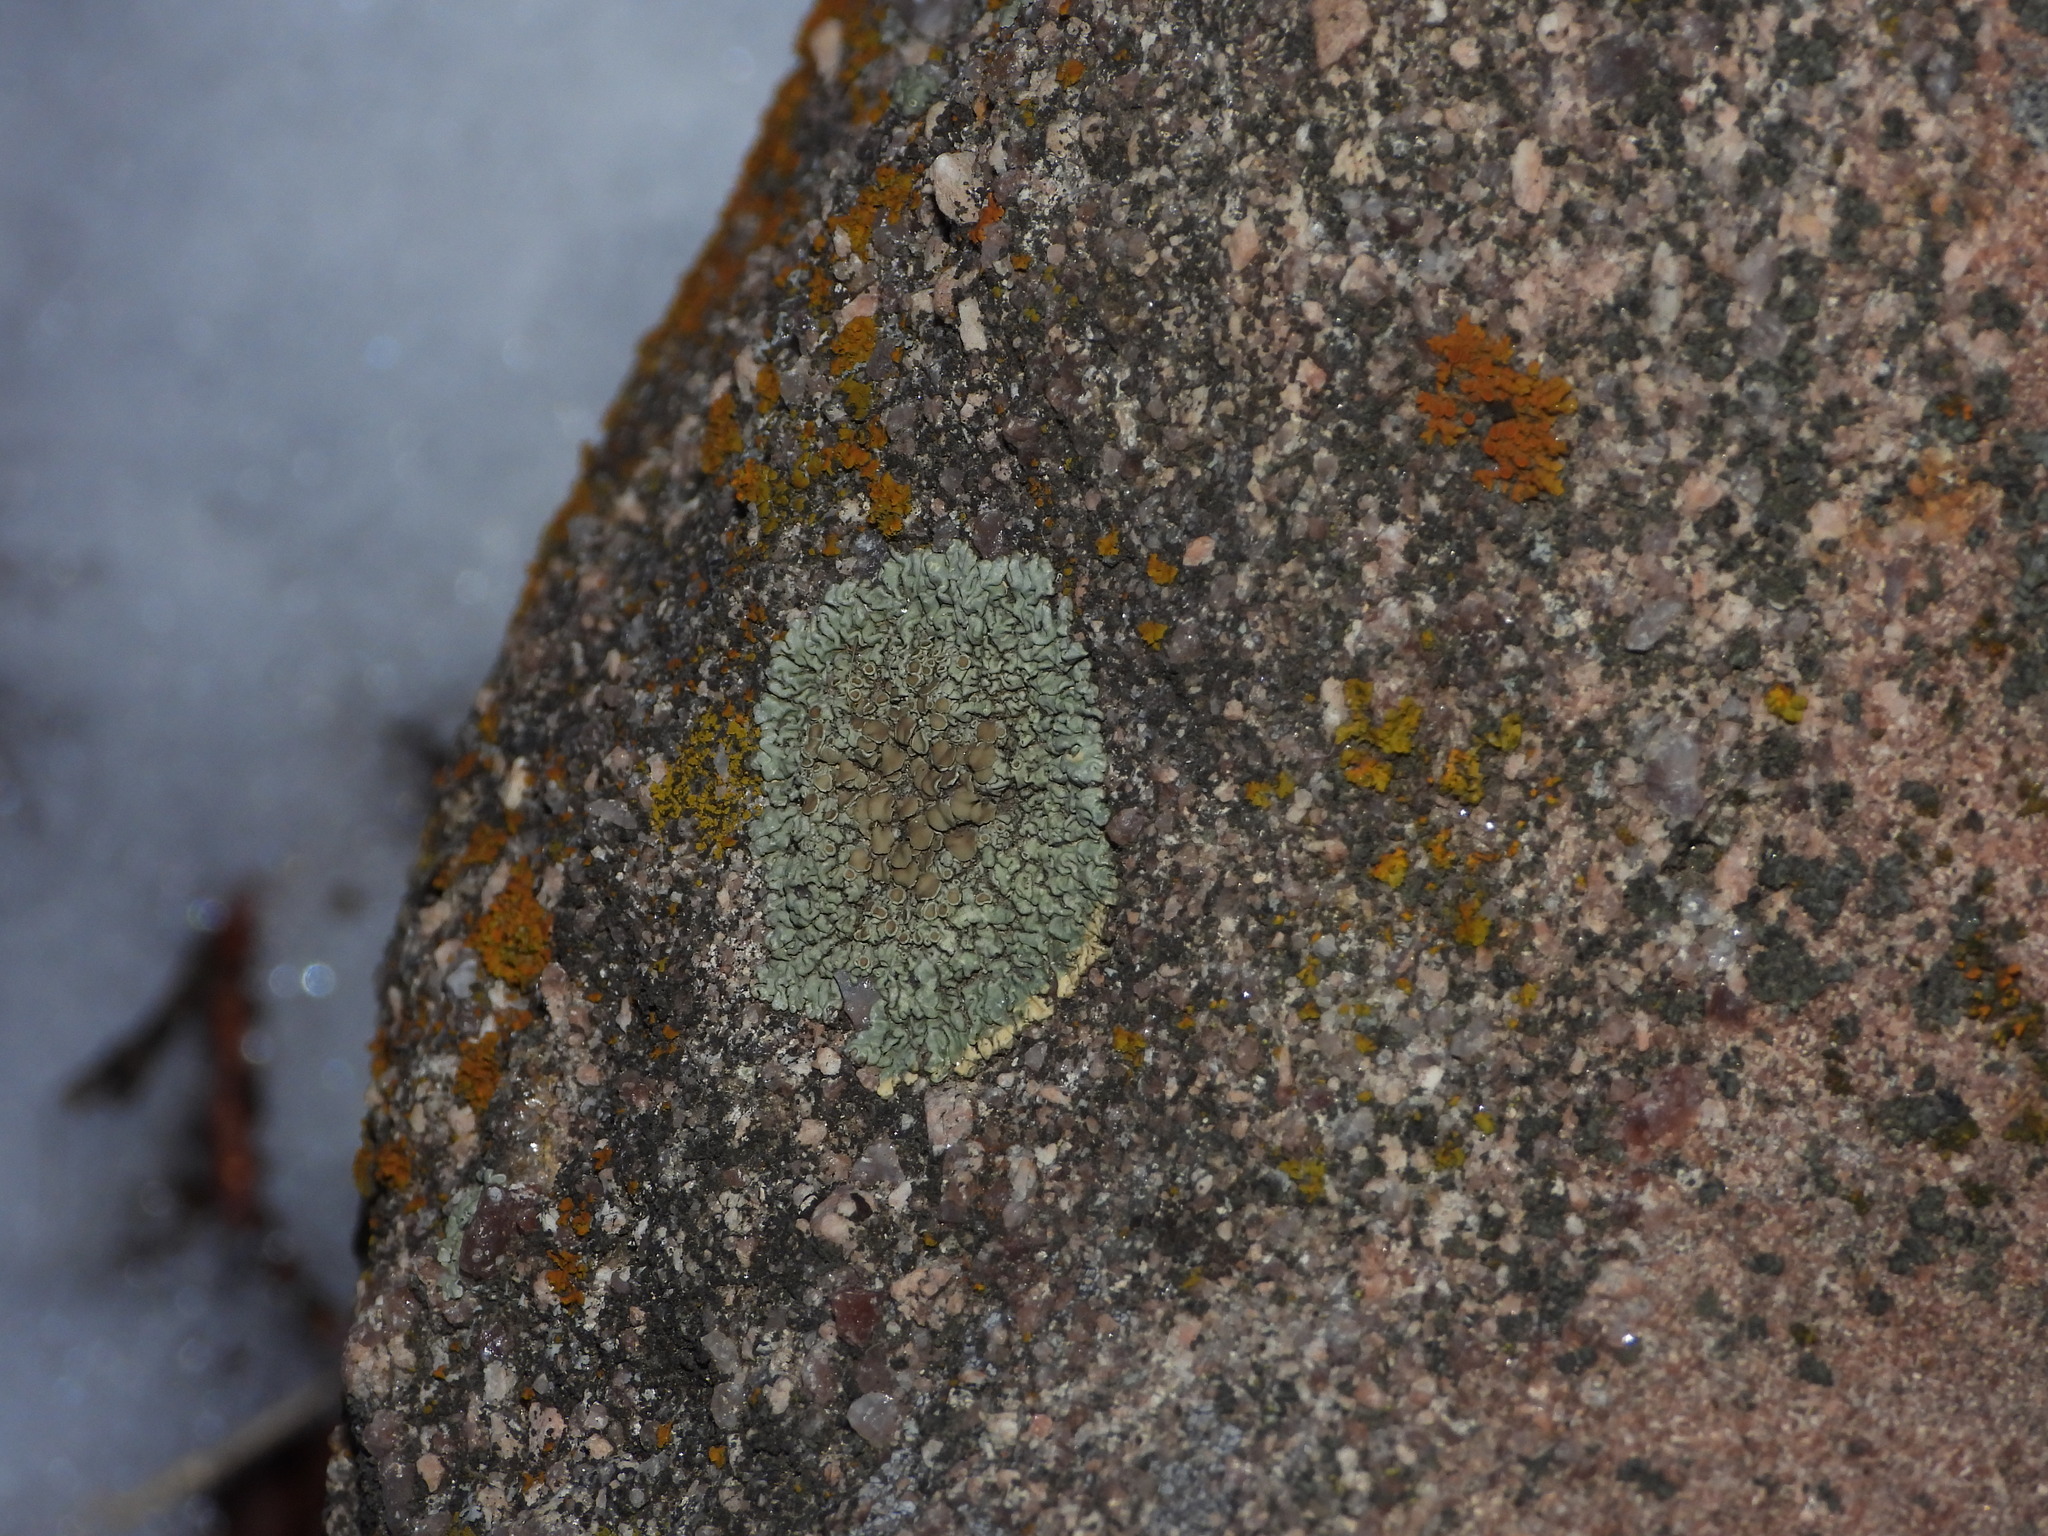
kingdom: Fungi
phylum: Ascomycota
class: Lecanoromycetes
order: Lecanorales
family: Lecanoraceae
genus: Protoparmeliopsis
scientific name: Protoparmeliopsis muralis
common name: Stonewall rim lichen
